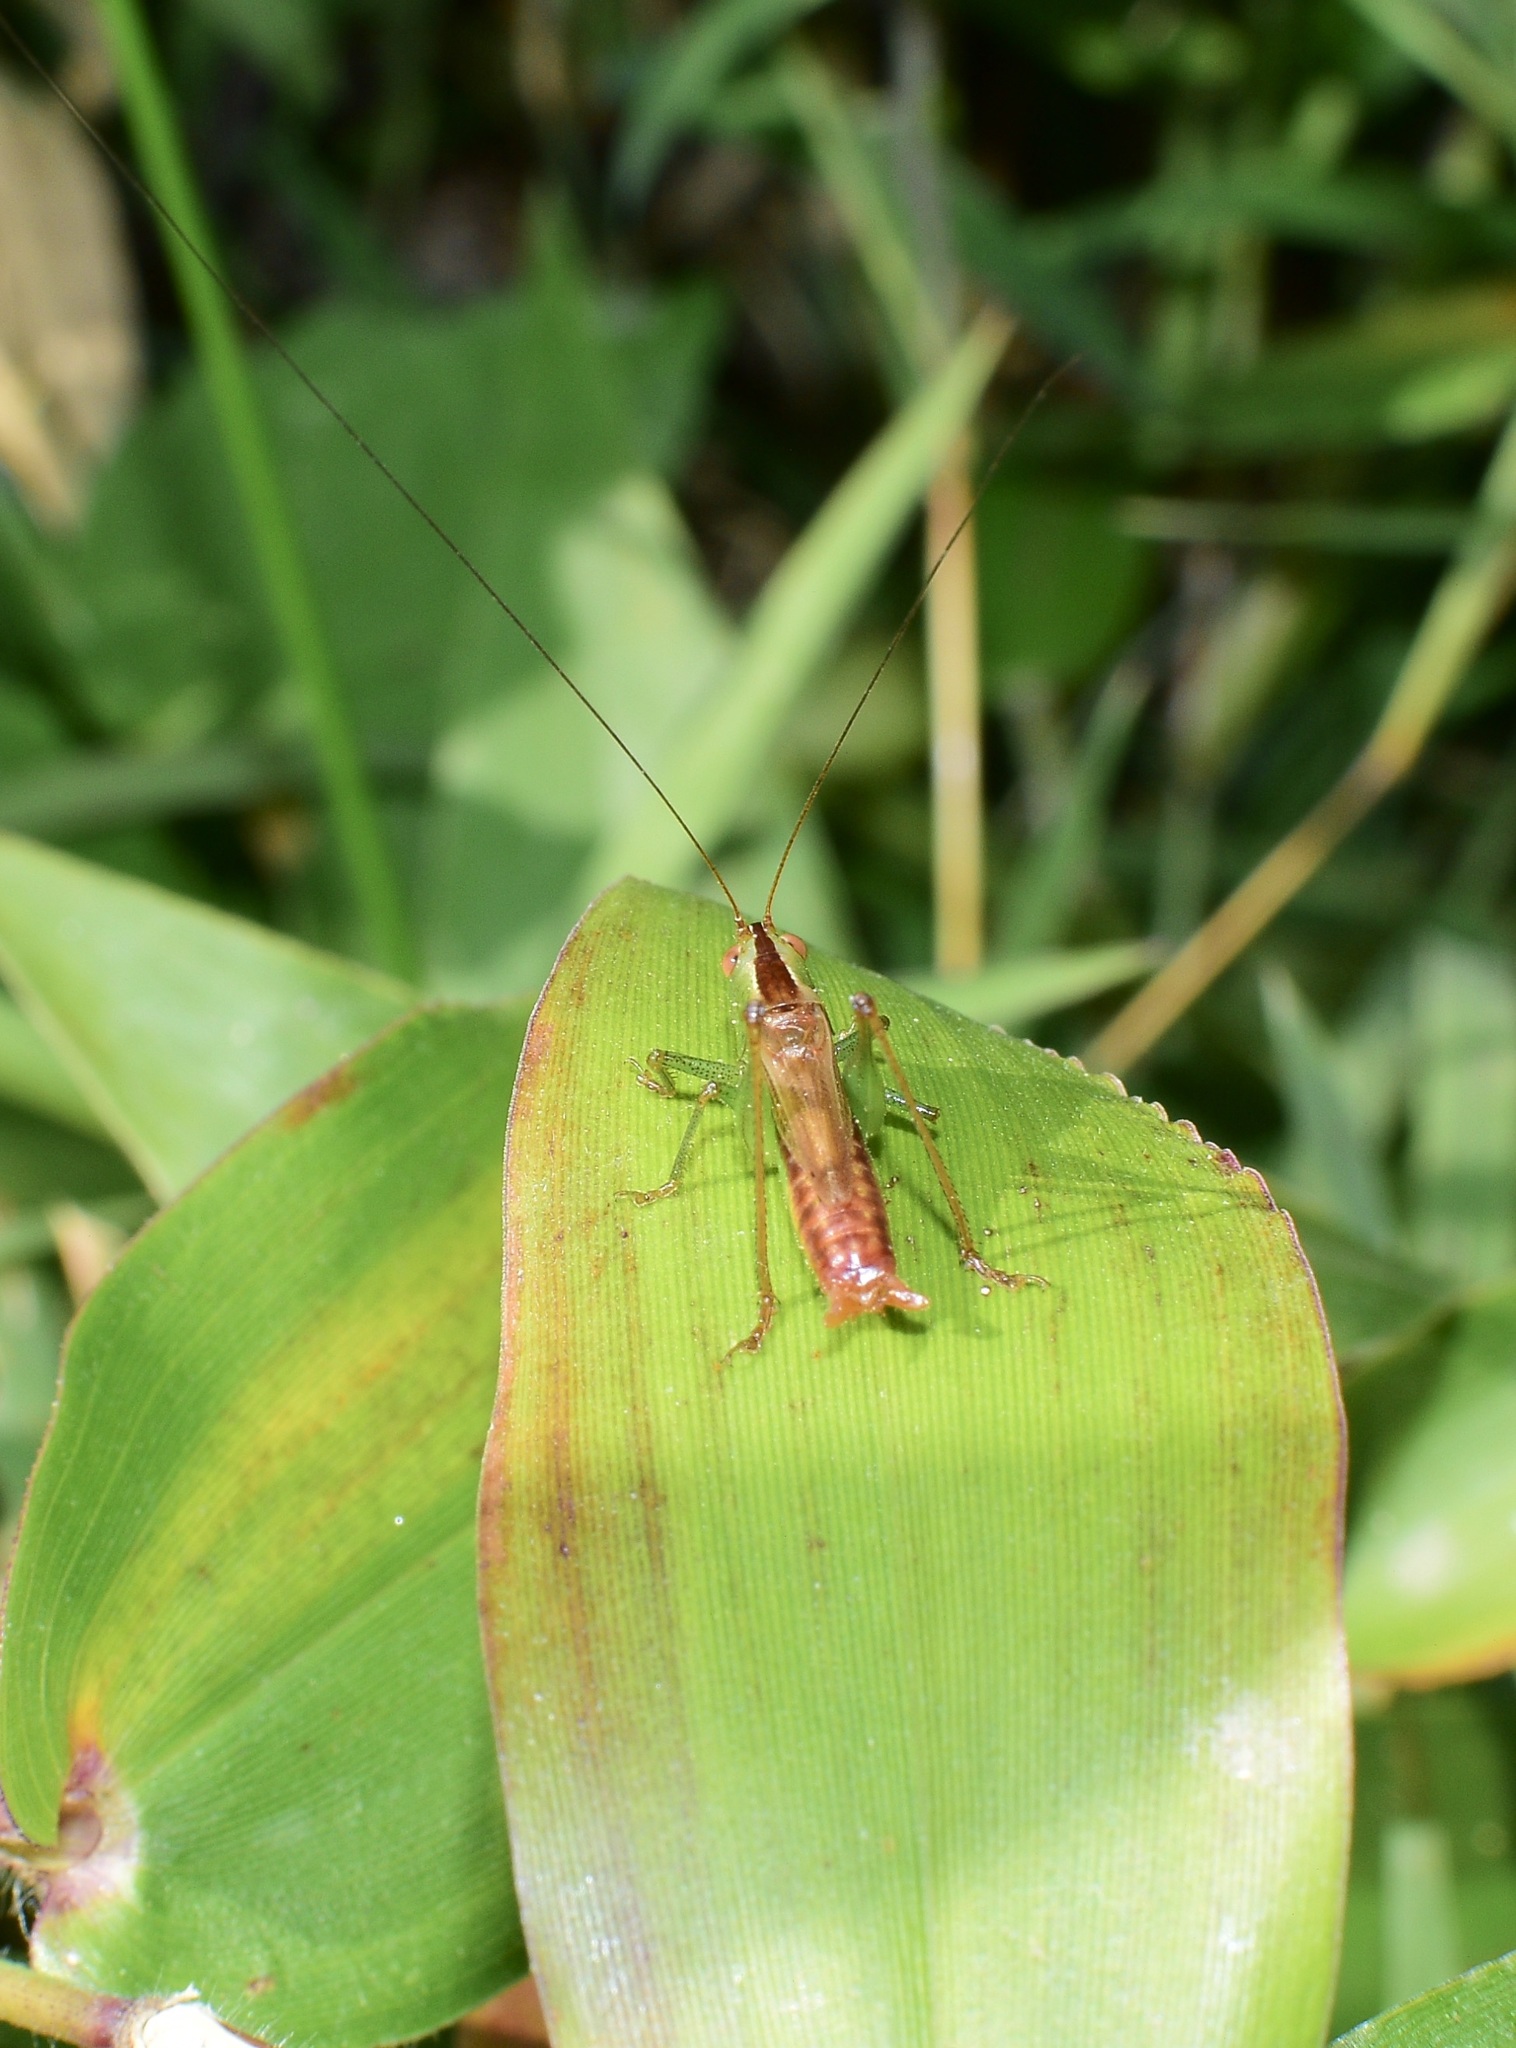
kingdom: Animalia
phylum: Arthropoda
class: Insecta
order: Orthoptera
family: Tettigoniidae
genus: Conocephalus
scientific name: Conocephalus brevipennis
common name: Short-winged meadow katydid
